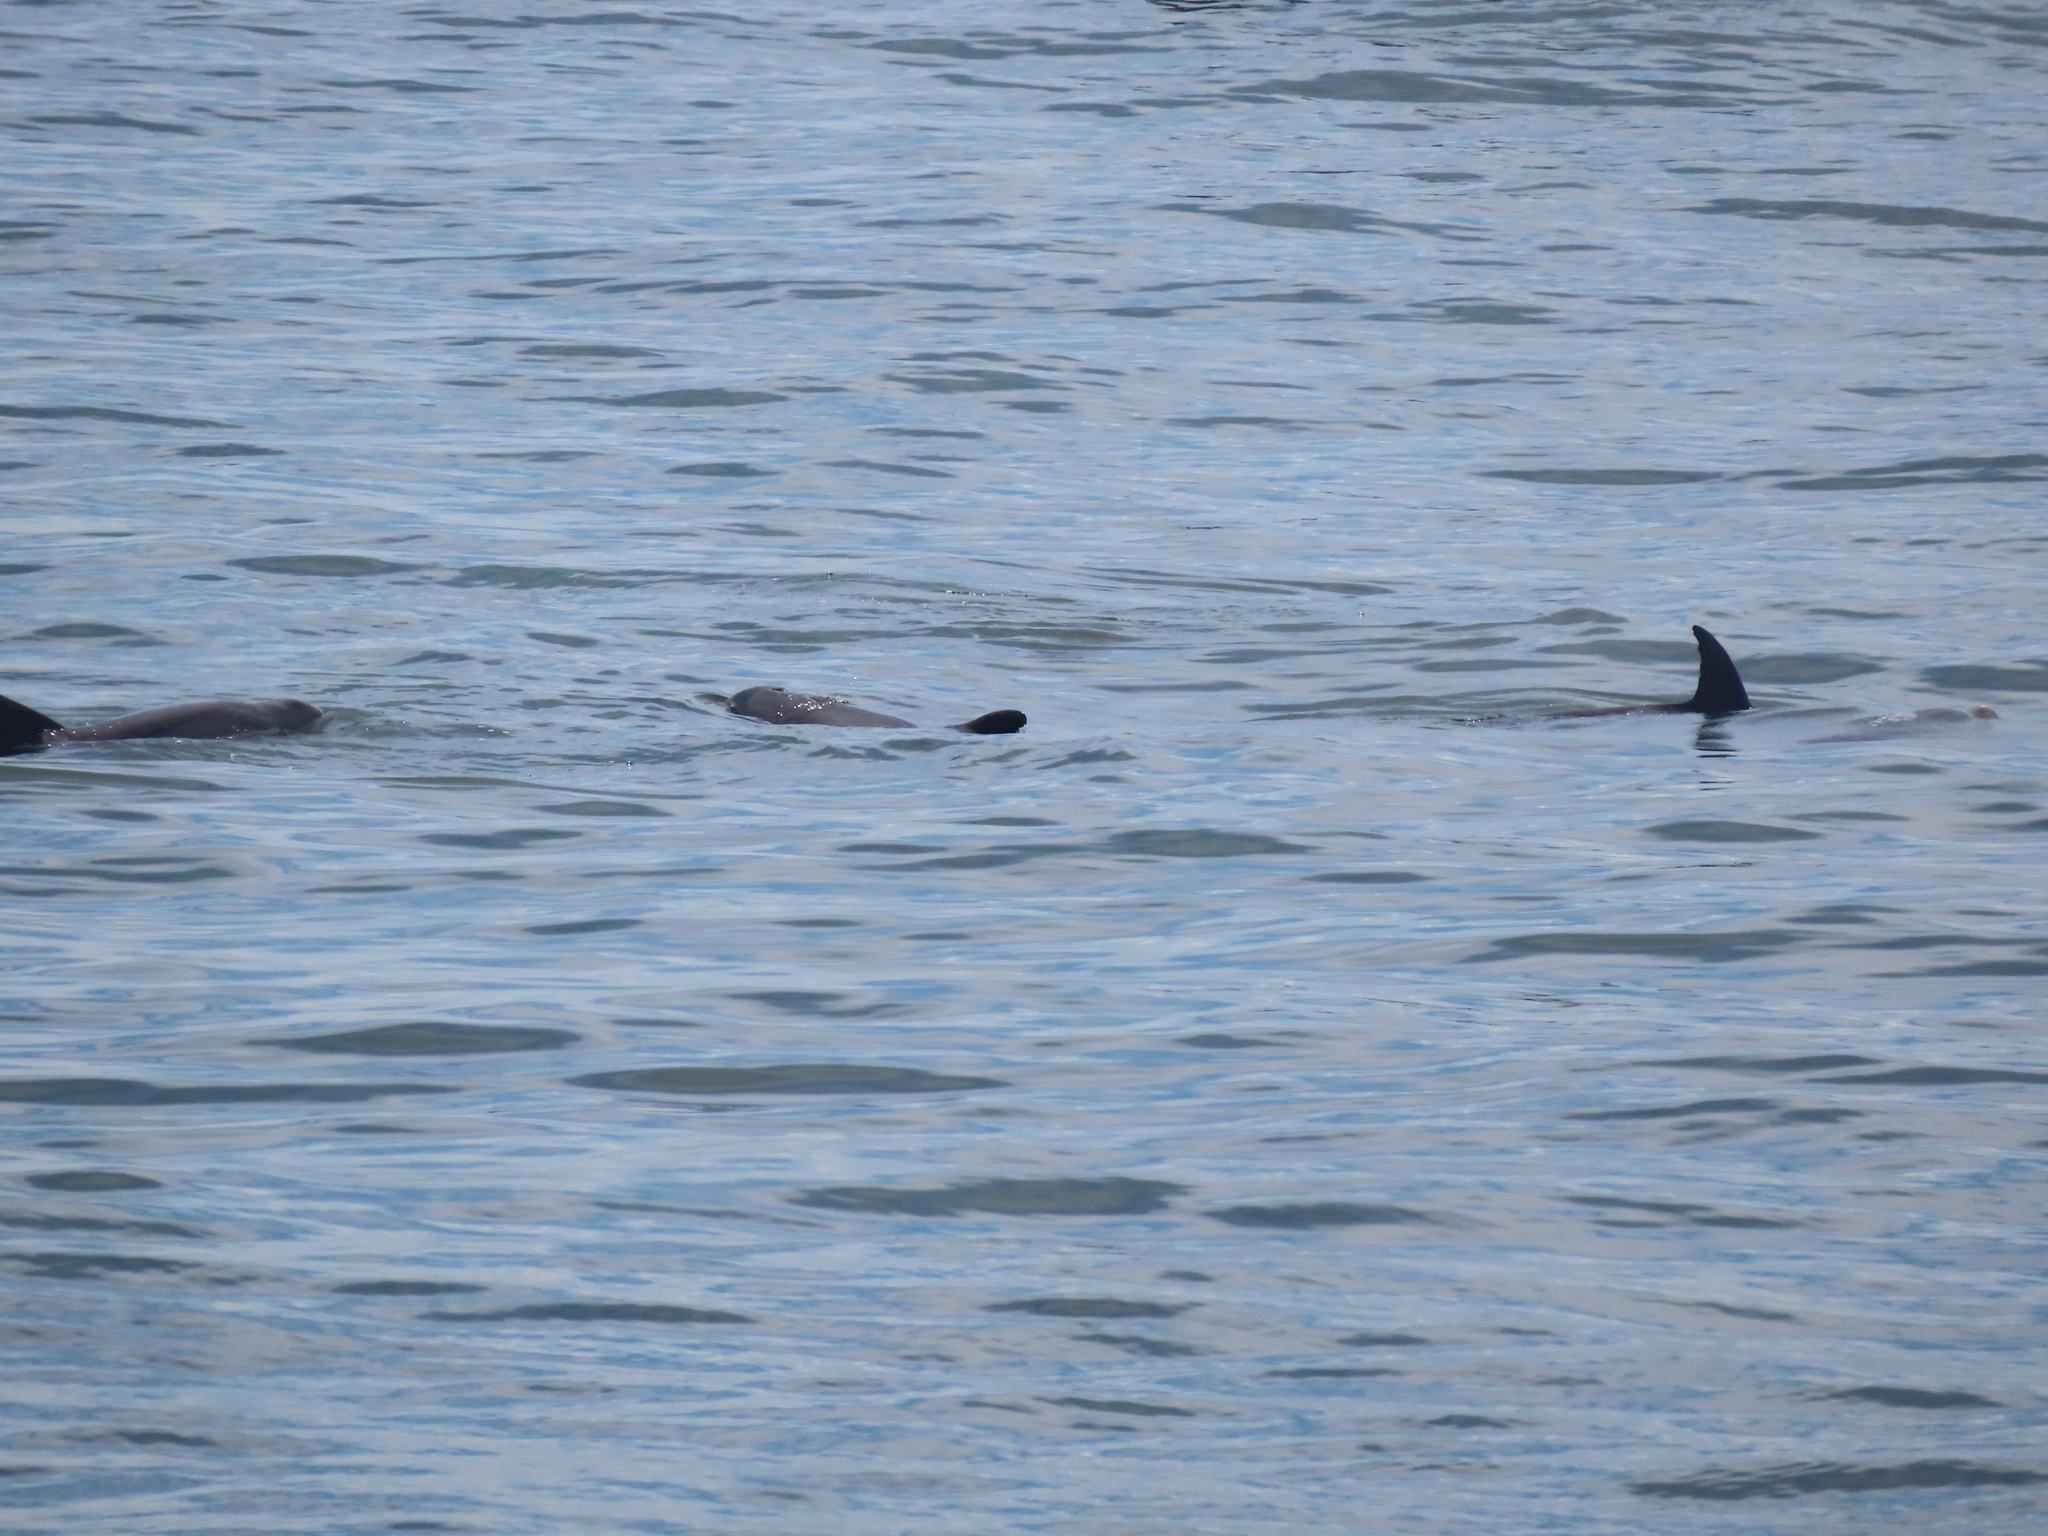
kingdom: Animalia
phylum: Chordata
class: Mammalia
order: Cetacea
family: Delphinidae
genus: Tursiops
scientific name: Tursiops truncatus
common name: Bottlenose dolphin
